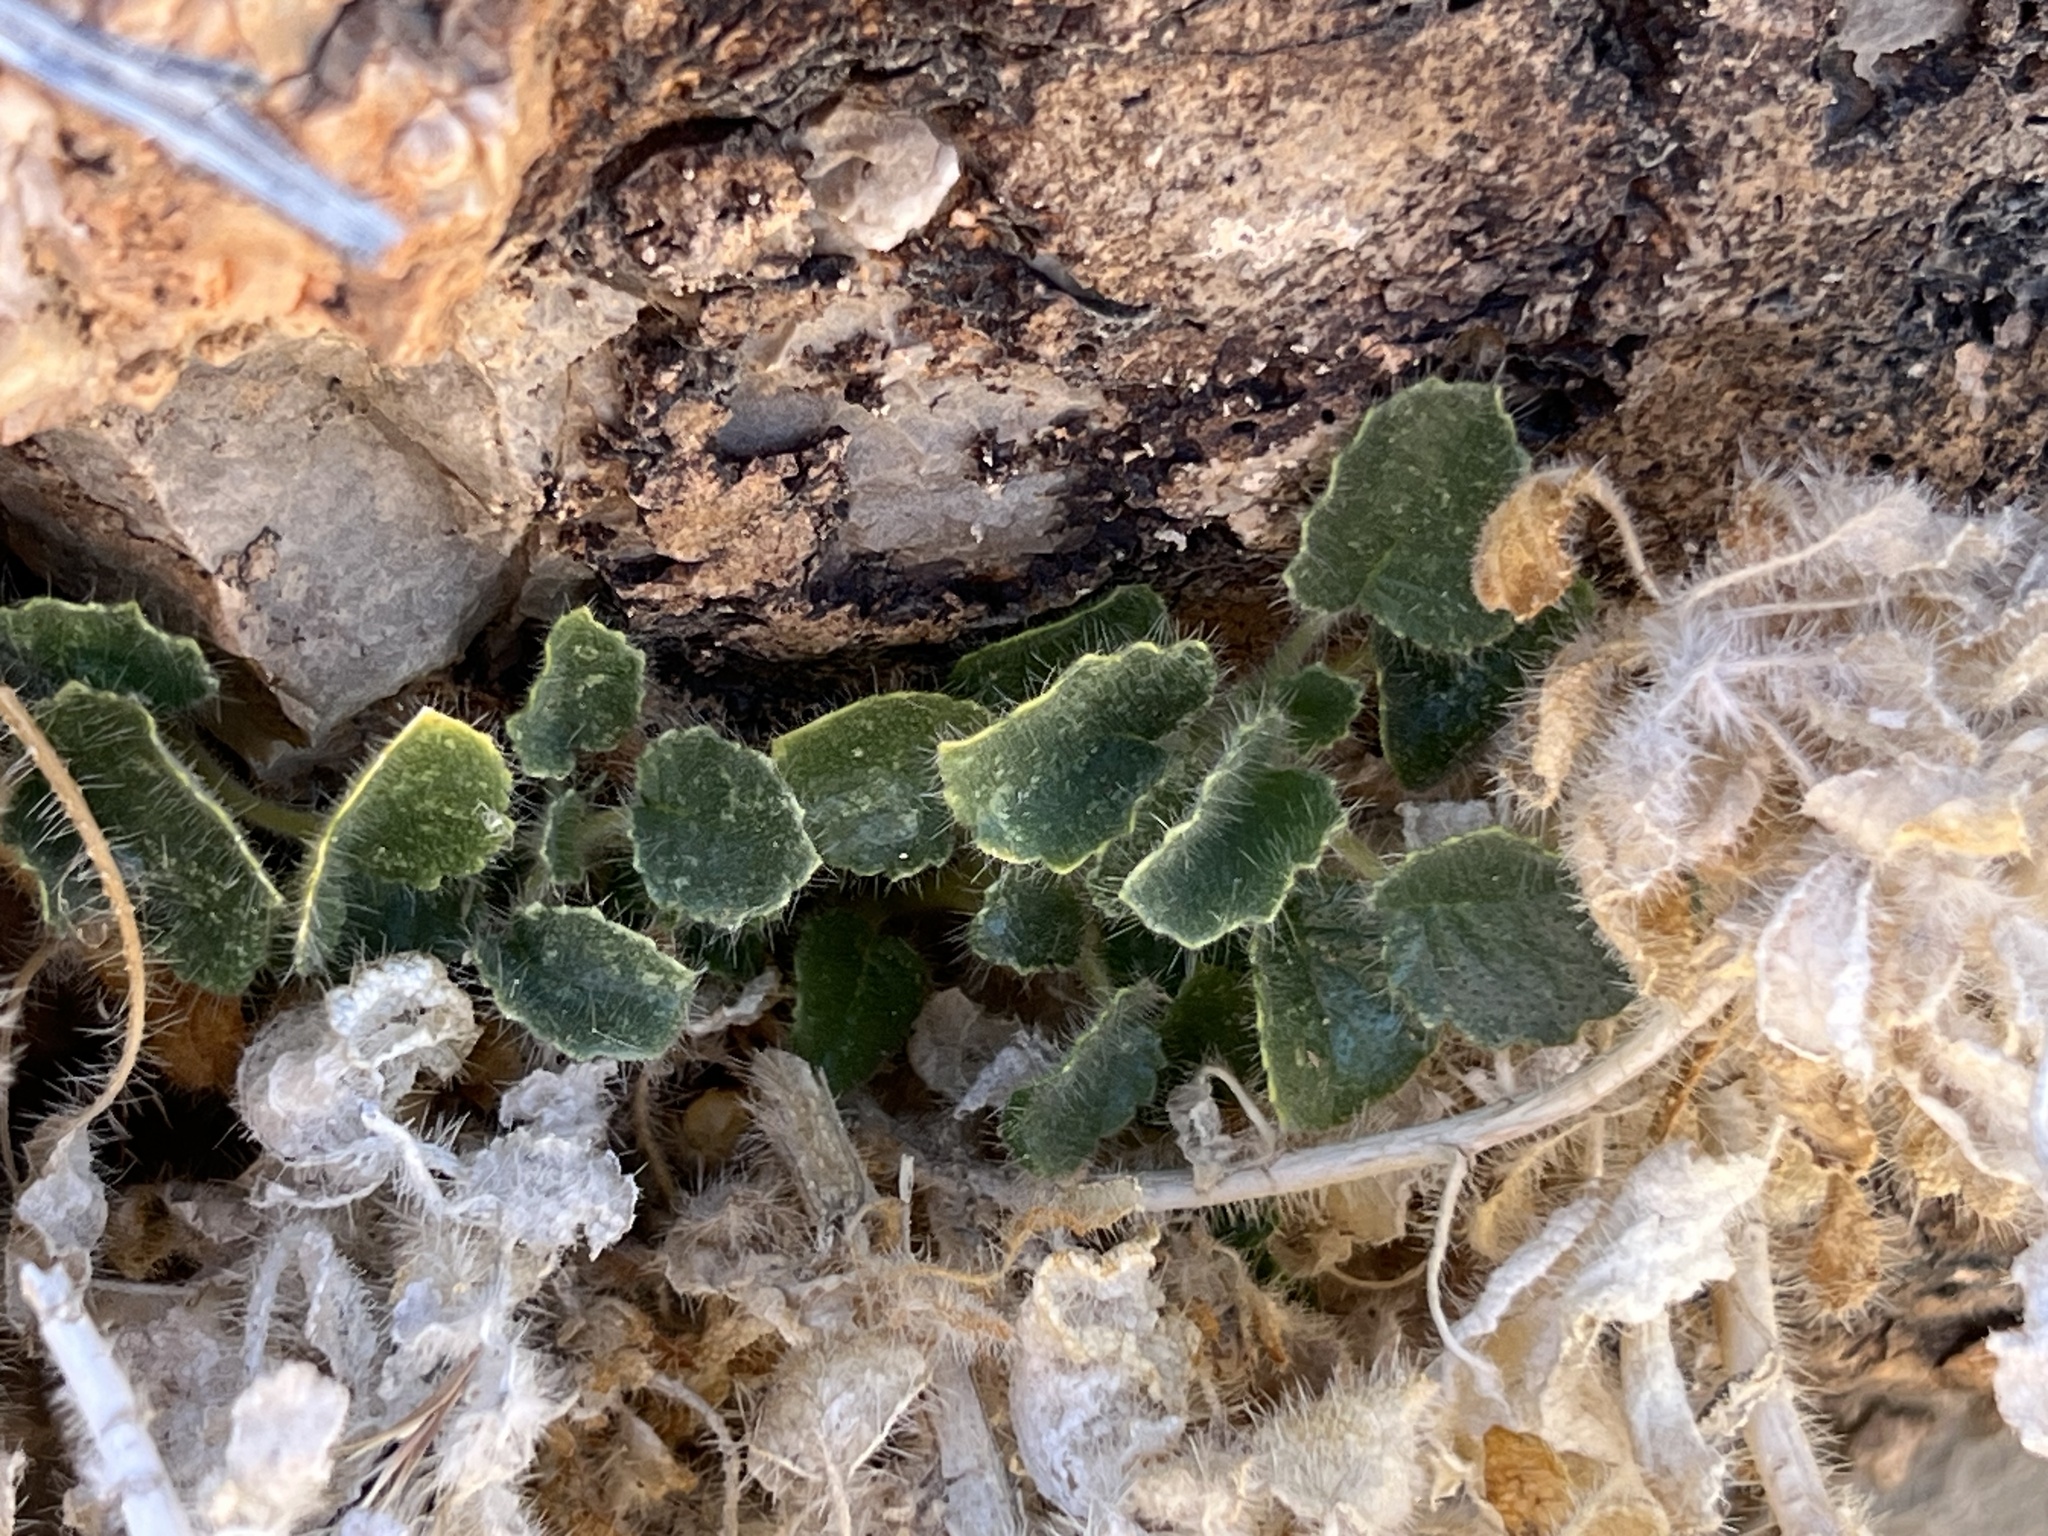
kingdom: Plantae
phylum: Tracheophyta
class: Magnoliopsida
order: Cornales
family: Loasaceae
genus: Eucnide
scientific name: Eucnide urens
